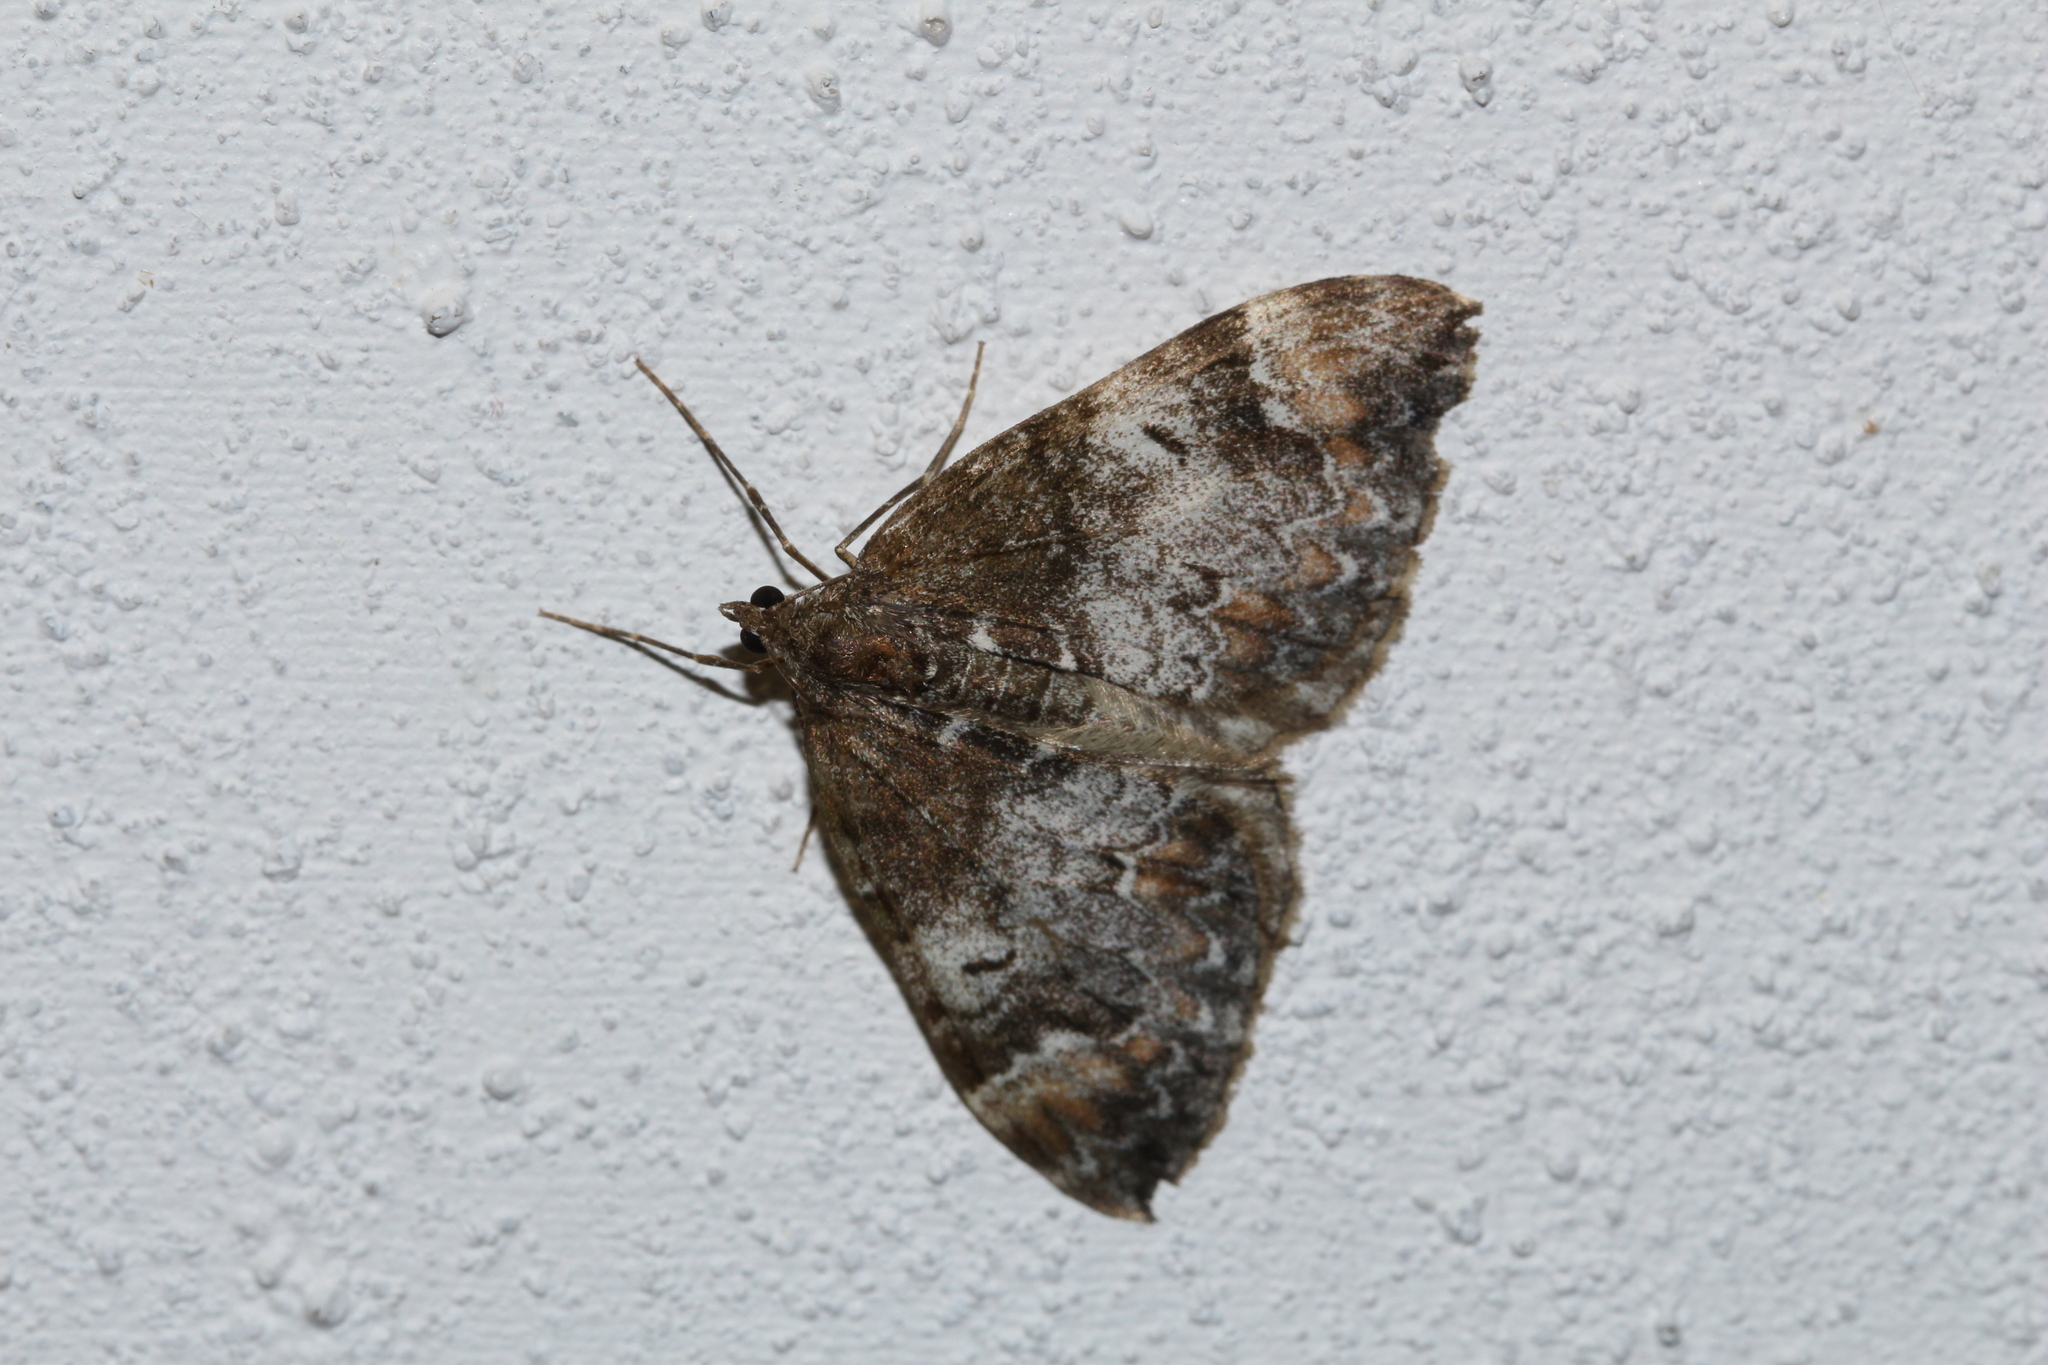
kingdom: Animalia
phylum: Arthropoda
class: Insecta
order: Lepidoptera
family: Geometridae
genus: Dysstroma
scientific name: Dysstroma truncata
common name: Common marbled carpet
